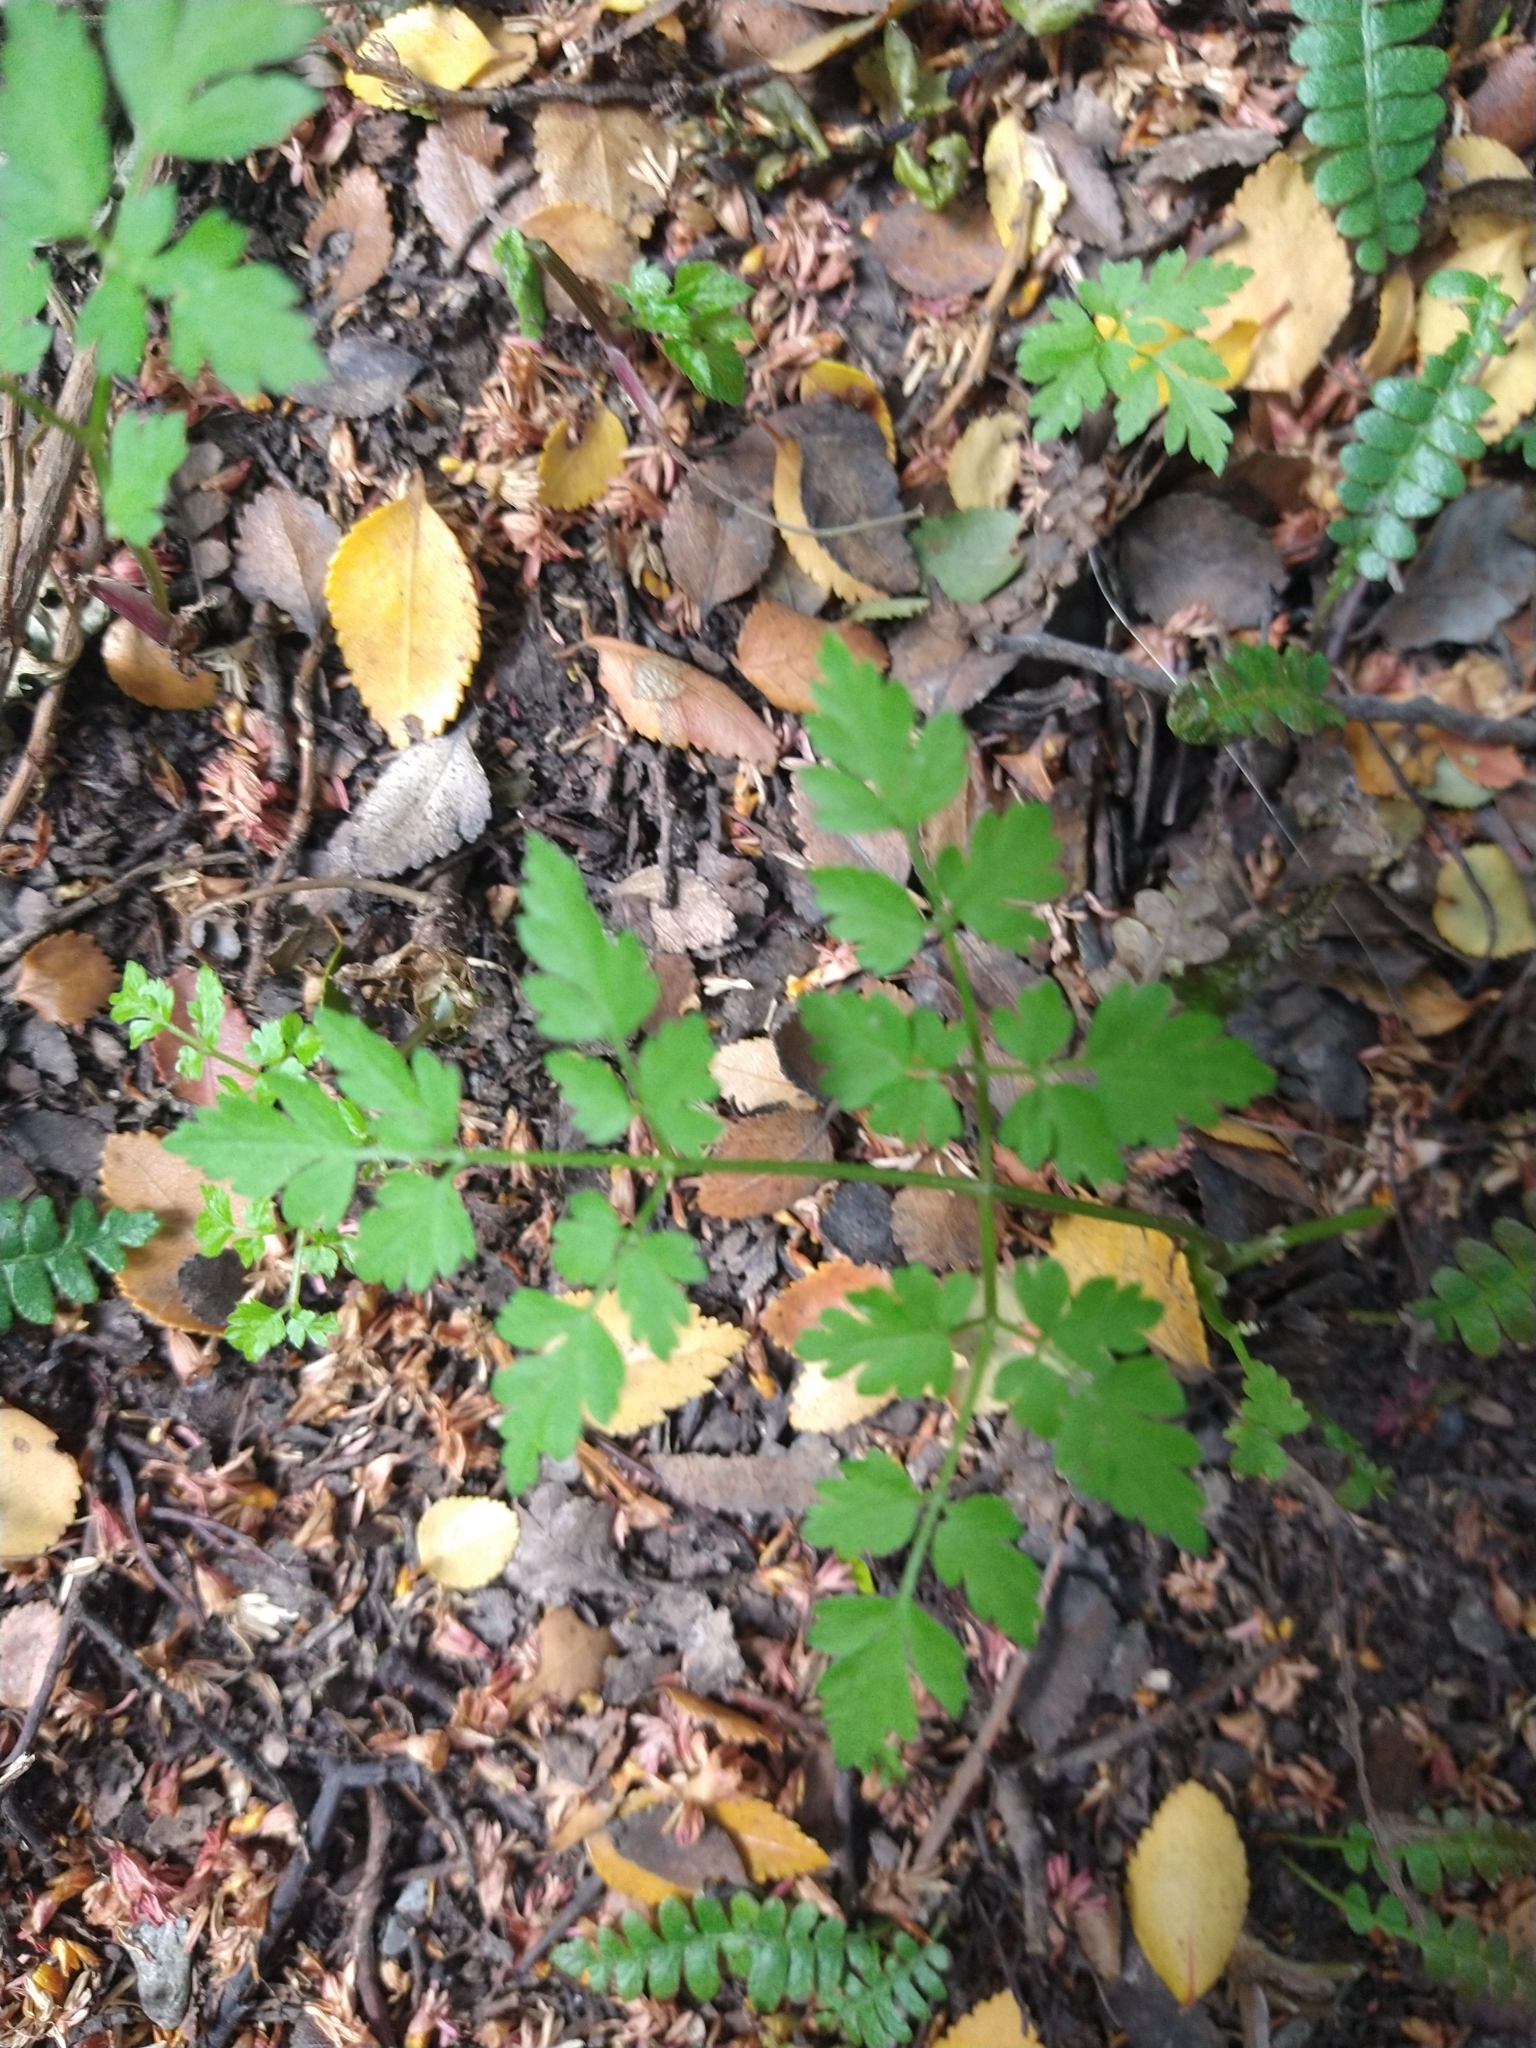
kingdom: Plantae
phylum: Tracheophyta
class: Magnoliopsida
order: Apiales
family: Apiaceae
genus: Osmorhiza
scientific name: Osmorhiza berteroi
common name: Mountain sweet cicely
